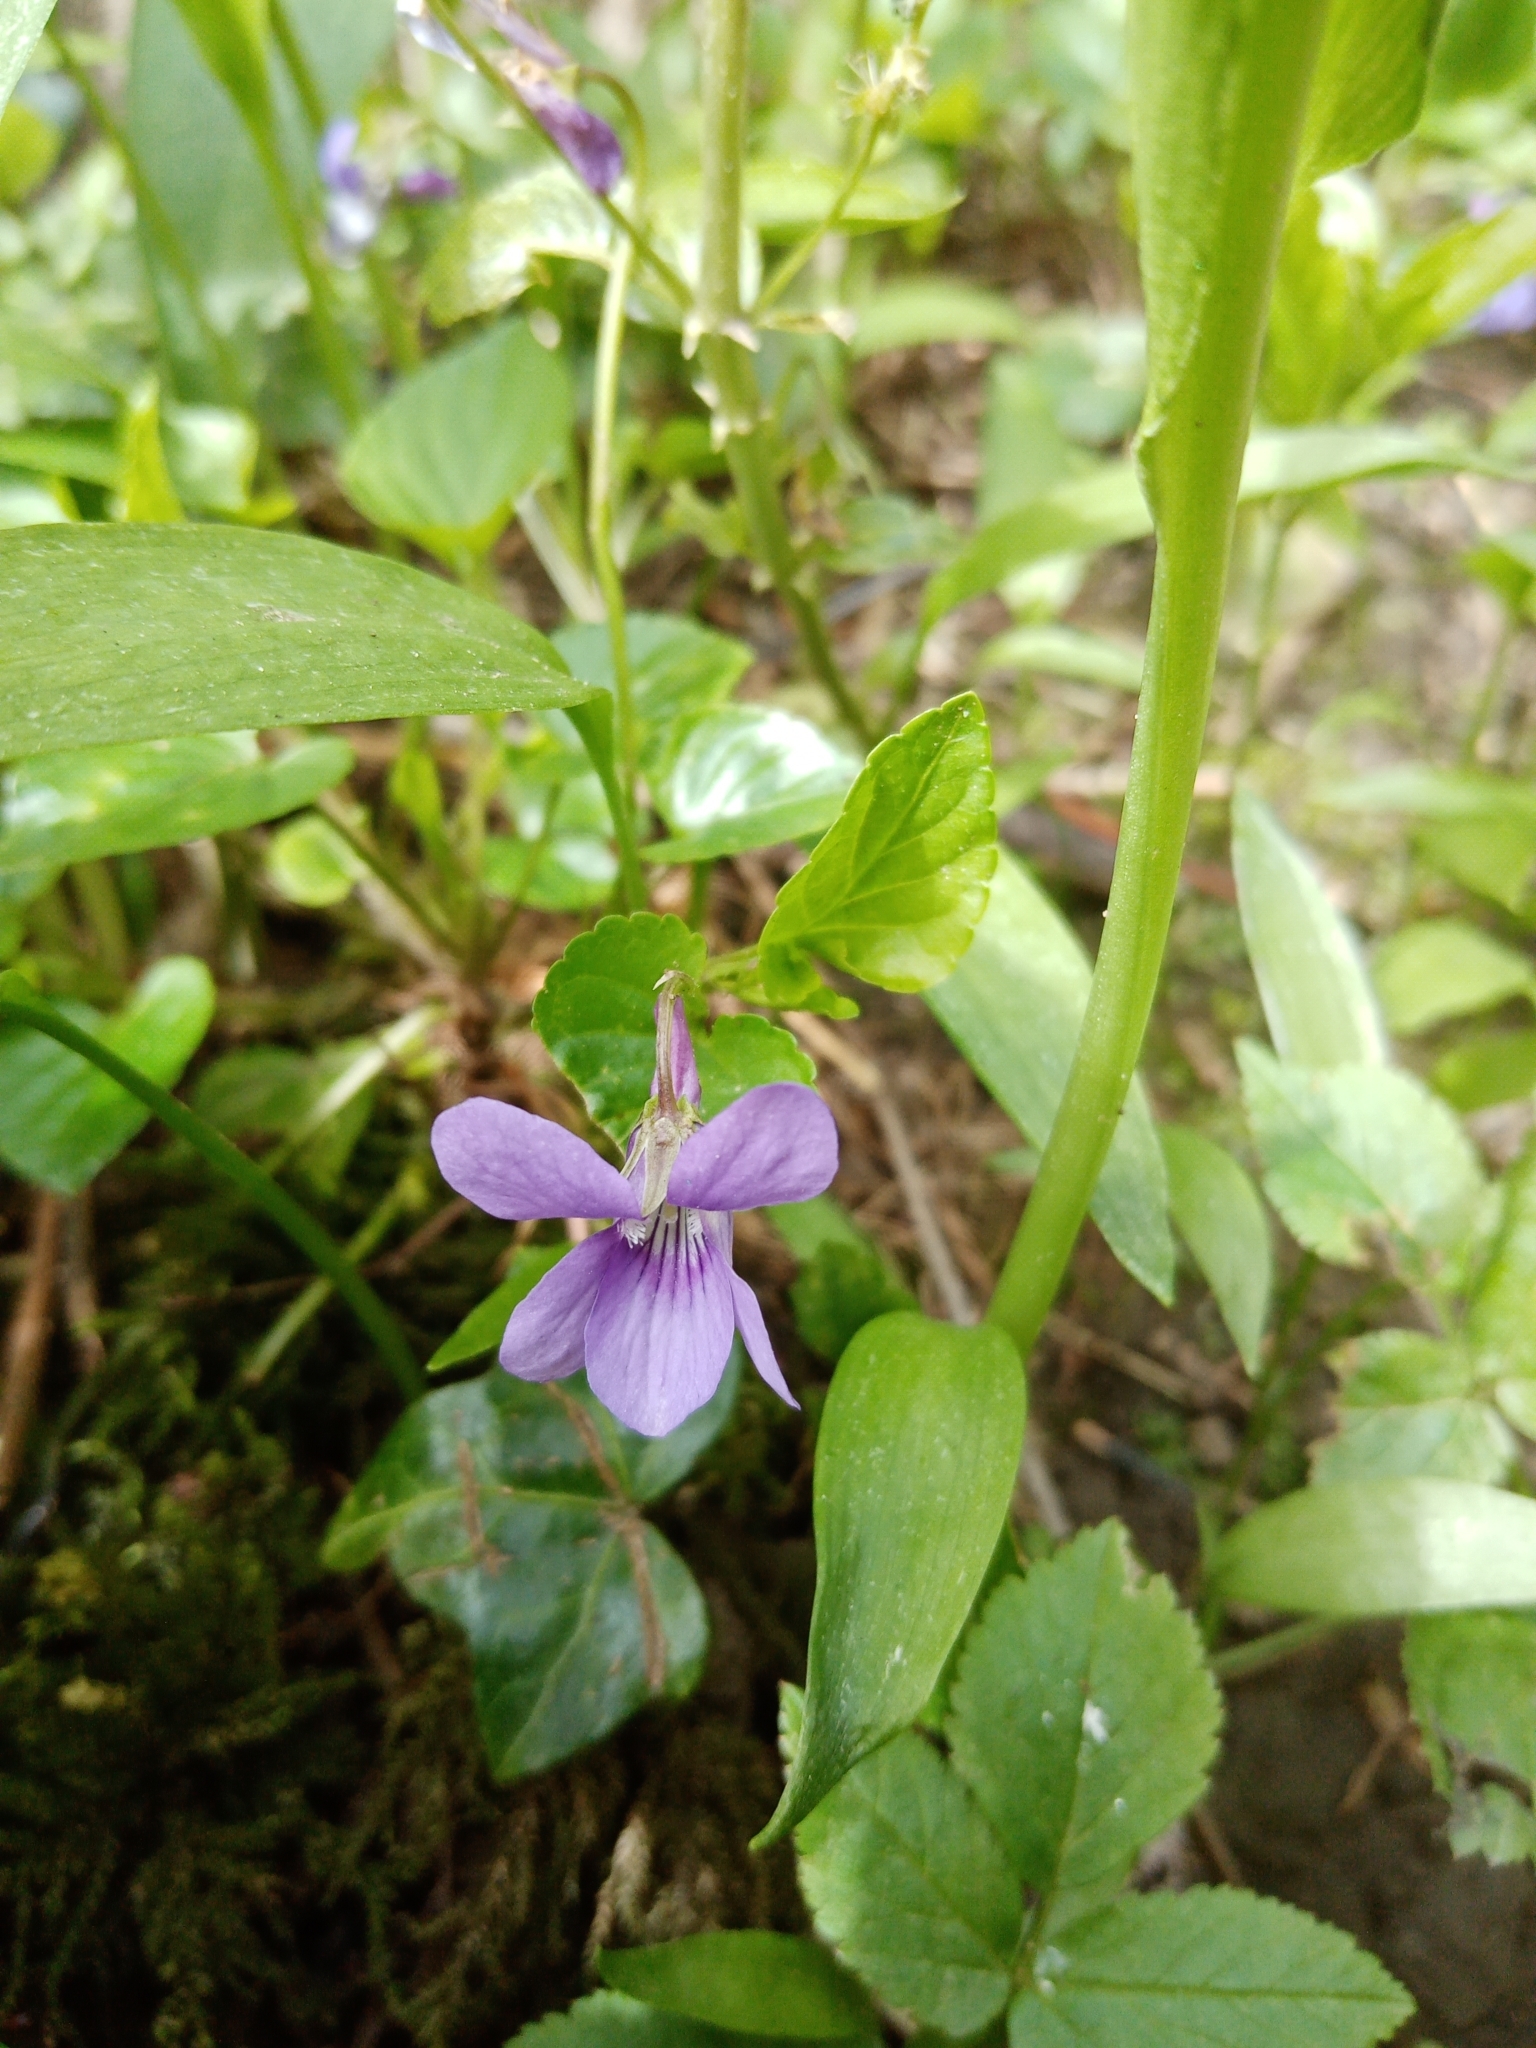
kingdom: Plantae
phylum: Tracheophyta
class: Magnoliopsida
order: Malpighiales
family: Violaceae
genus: Viola
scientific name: Viola riviniana
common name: Common dog-violet
